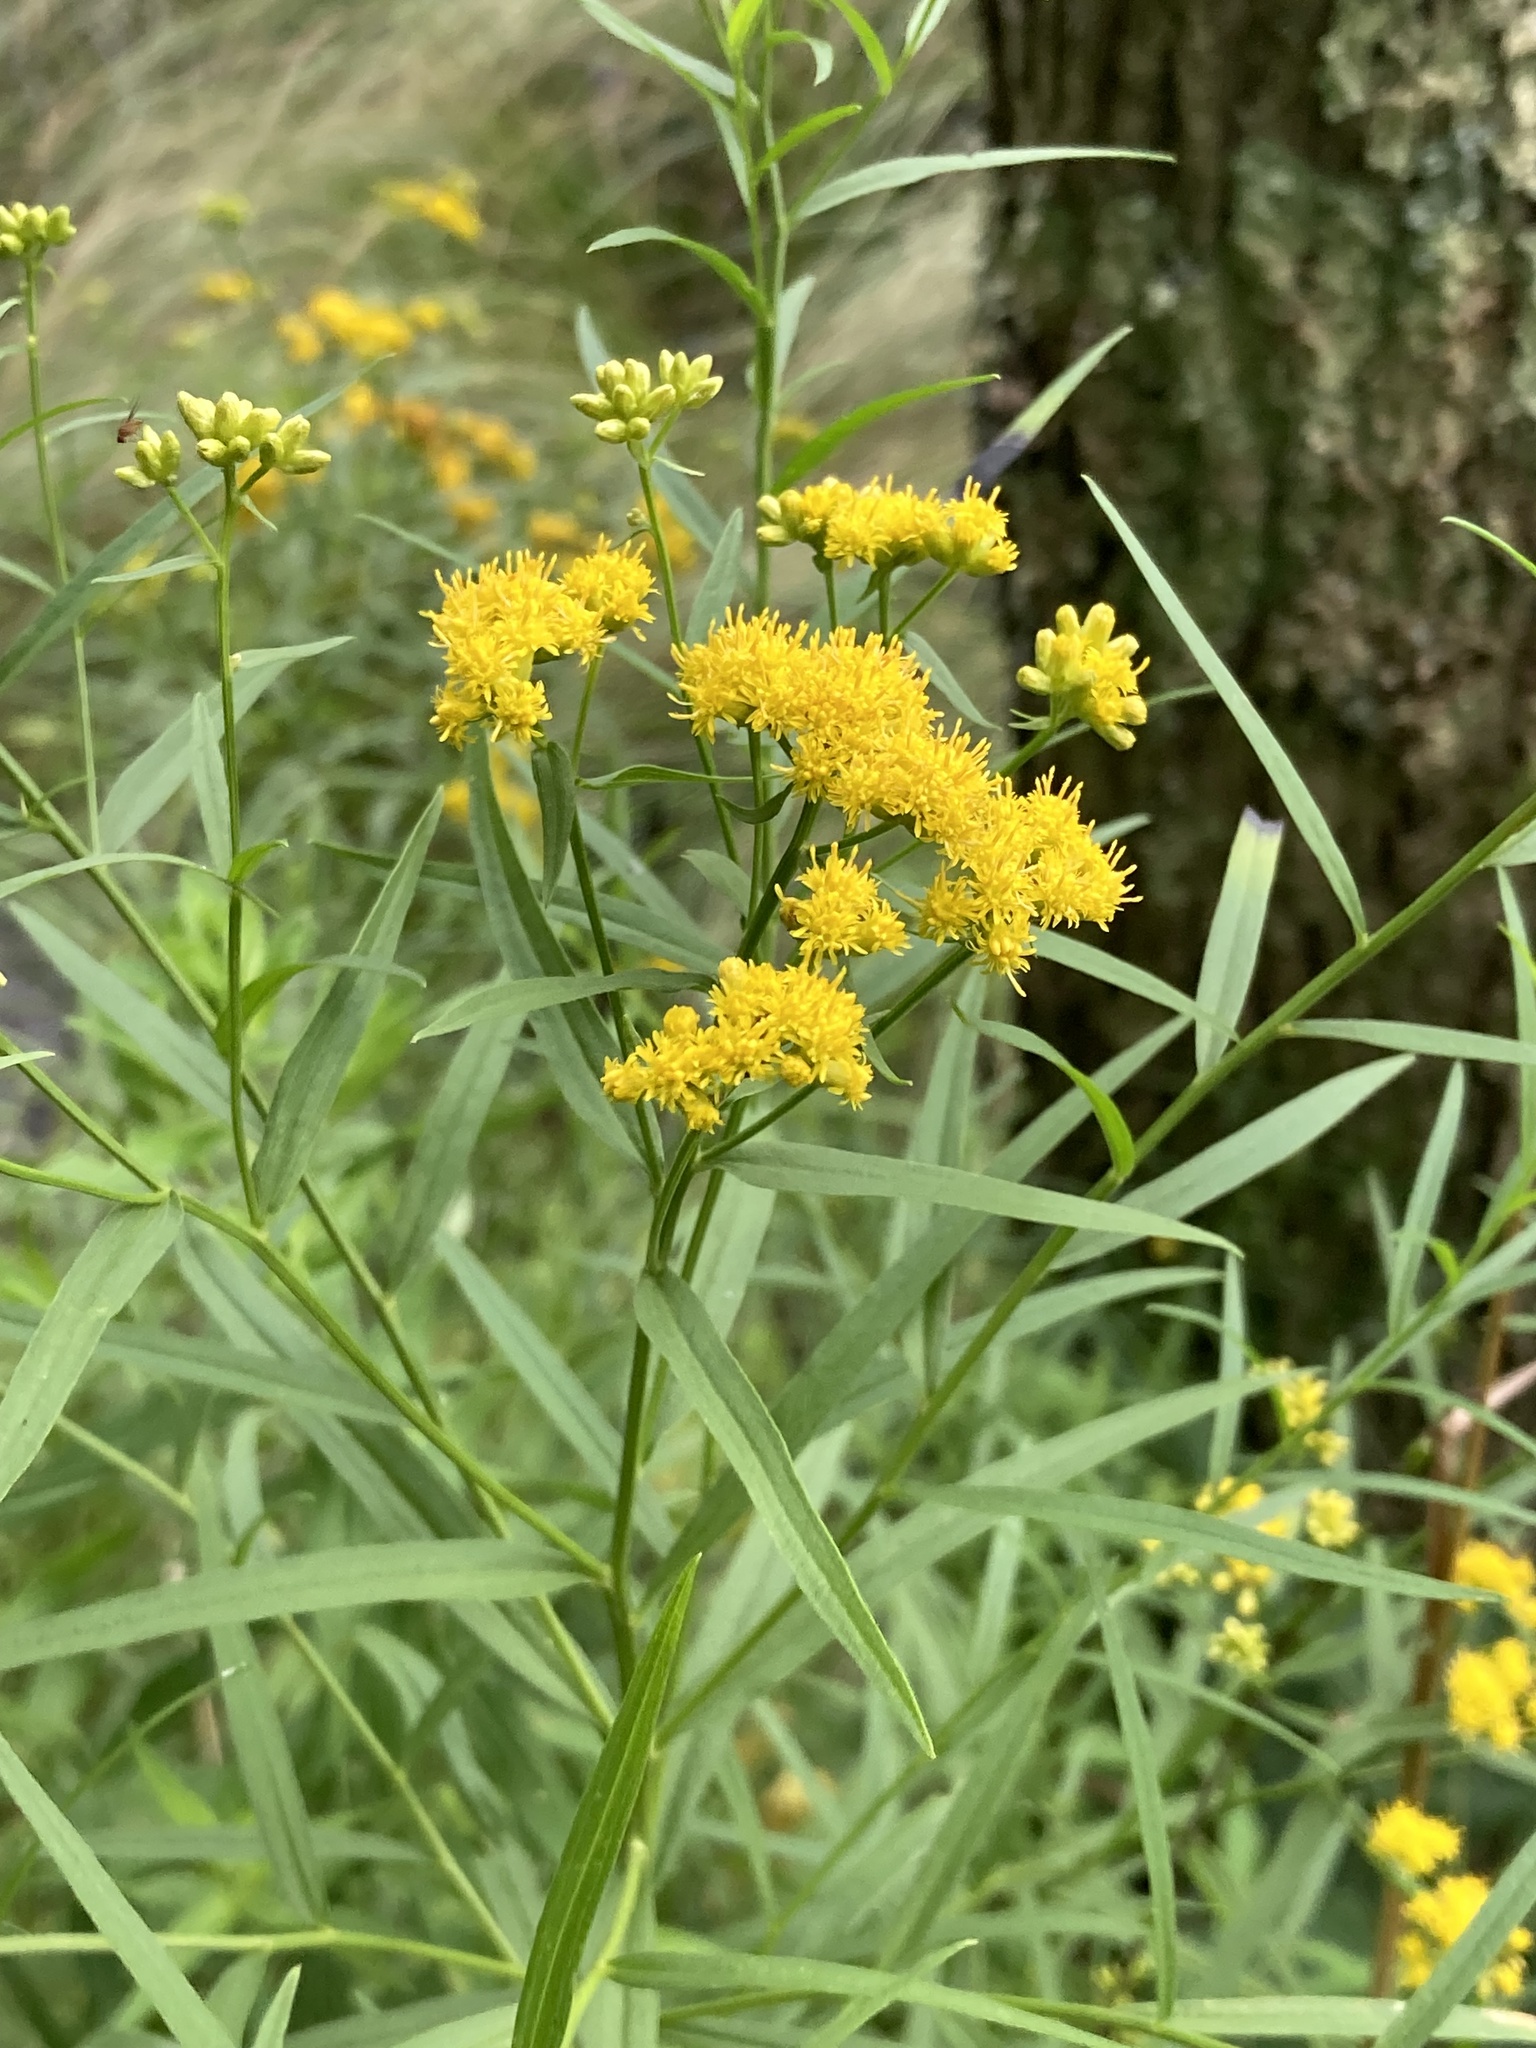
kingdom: Plantae
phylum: Tracheophyta
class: Magnoliopsida
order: Asterales
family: Asteraceae
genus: Euthamia
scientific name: Euthamia graminifolia
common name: Common goldentop
